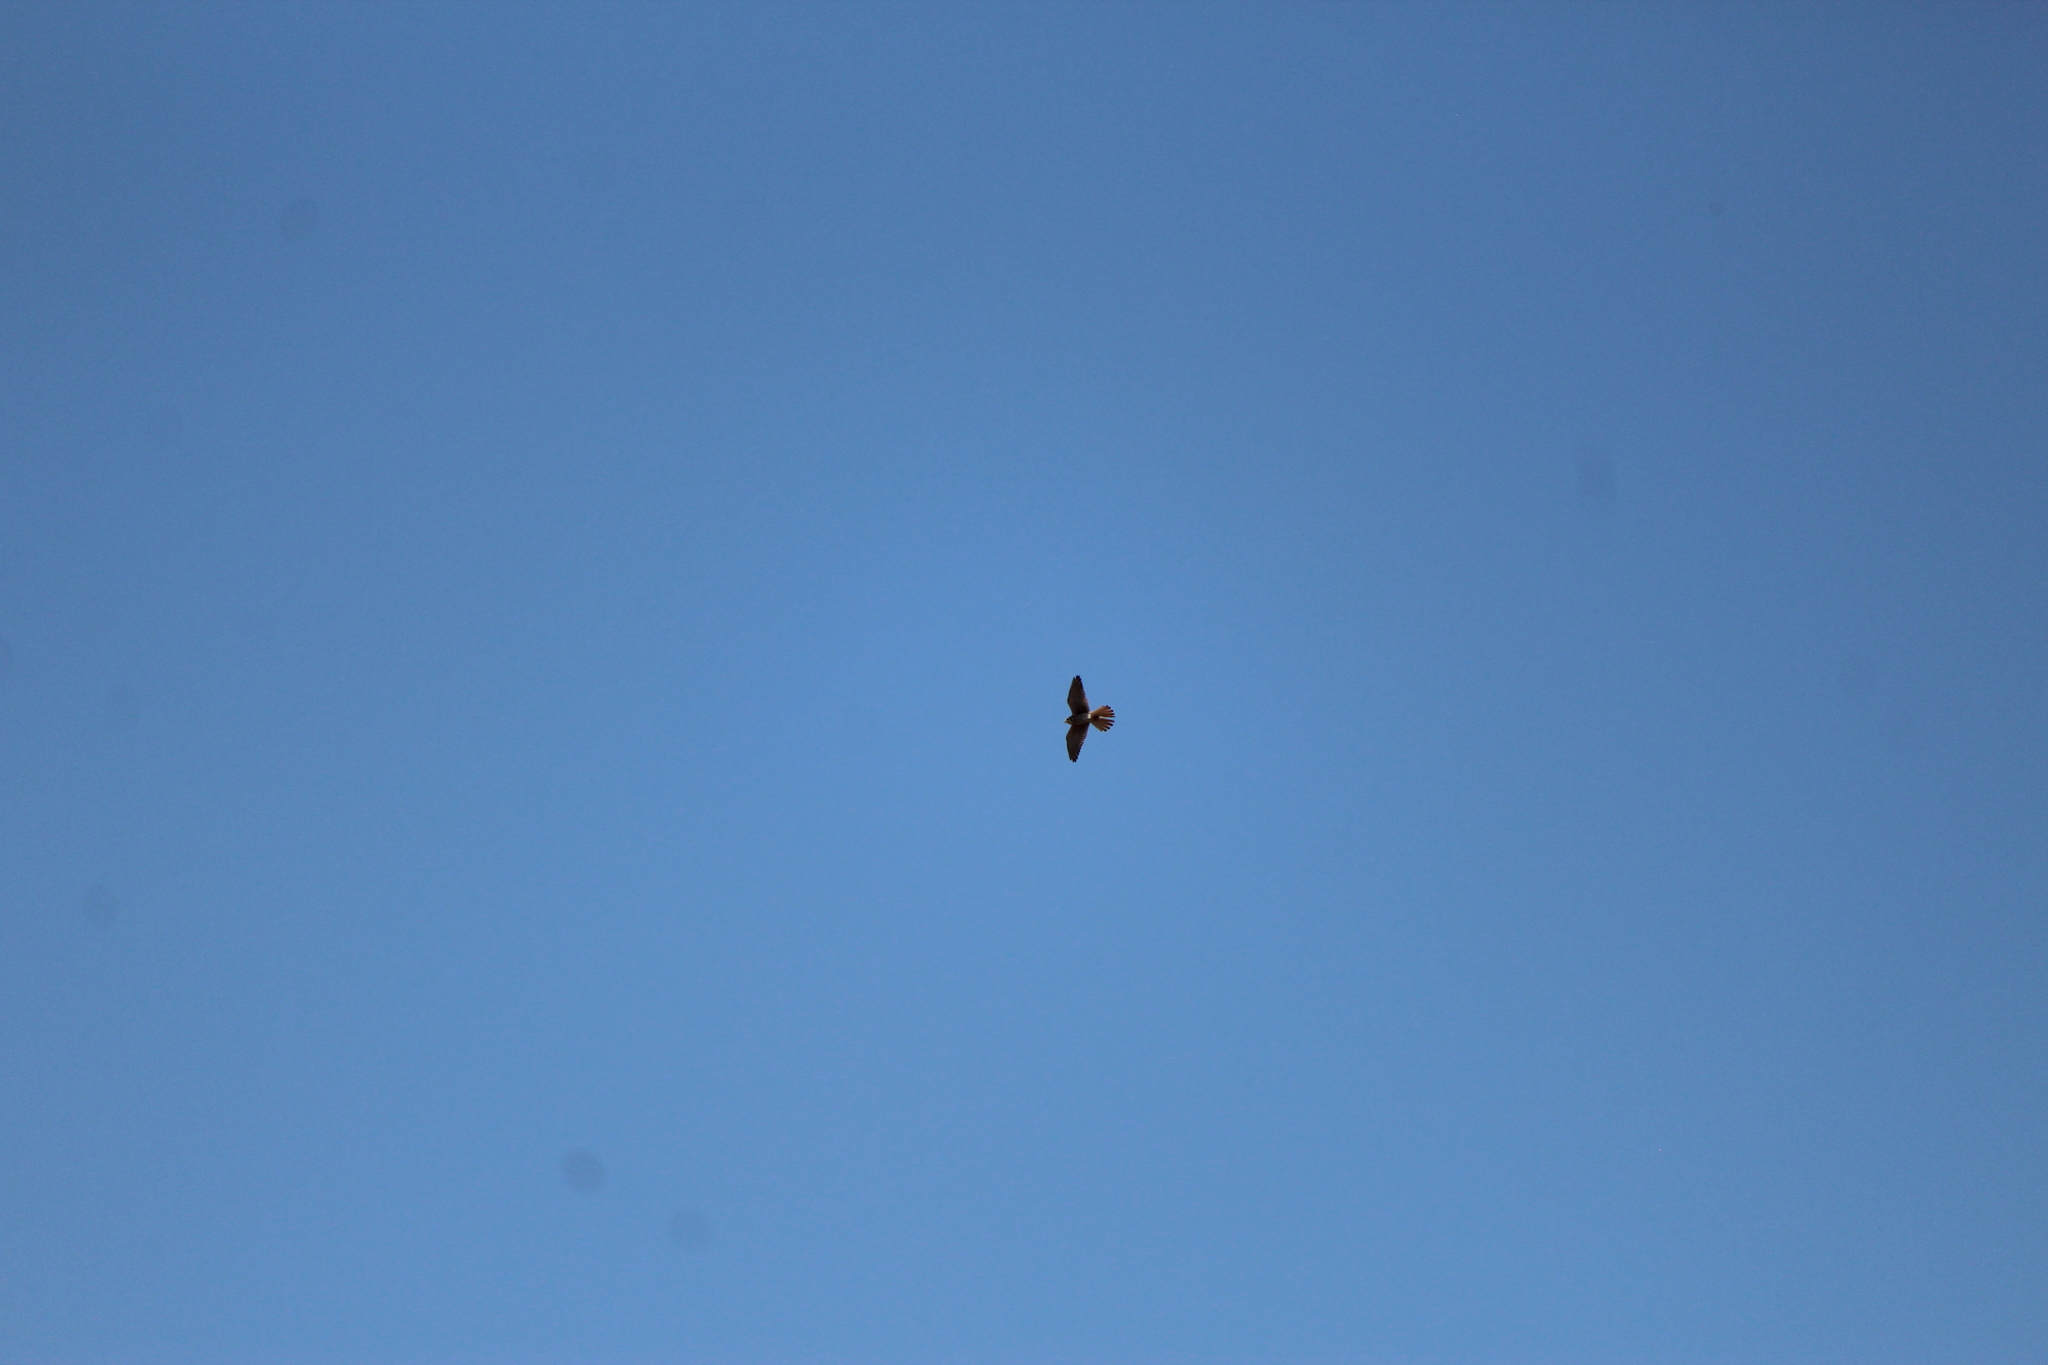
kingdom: Animalia
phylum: Chordata
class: Aves
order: Falconiformes
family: Falconidae
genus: Falco
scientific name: Falco sparverius
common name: American kestrel
